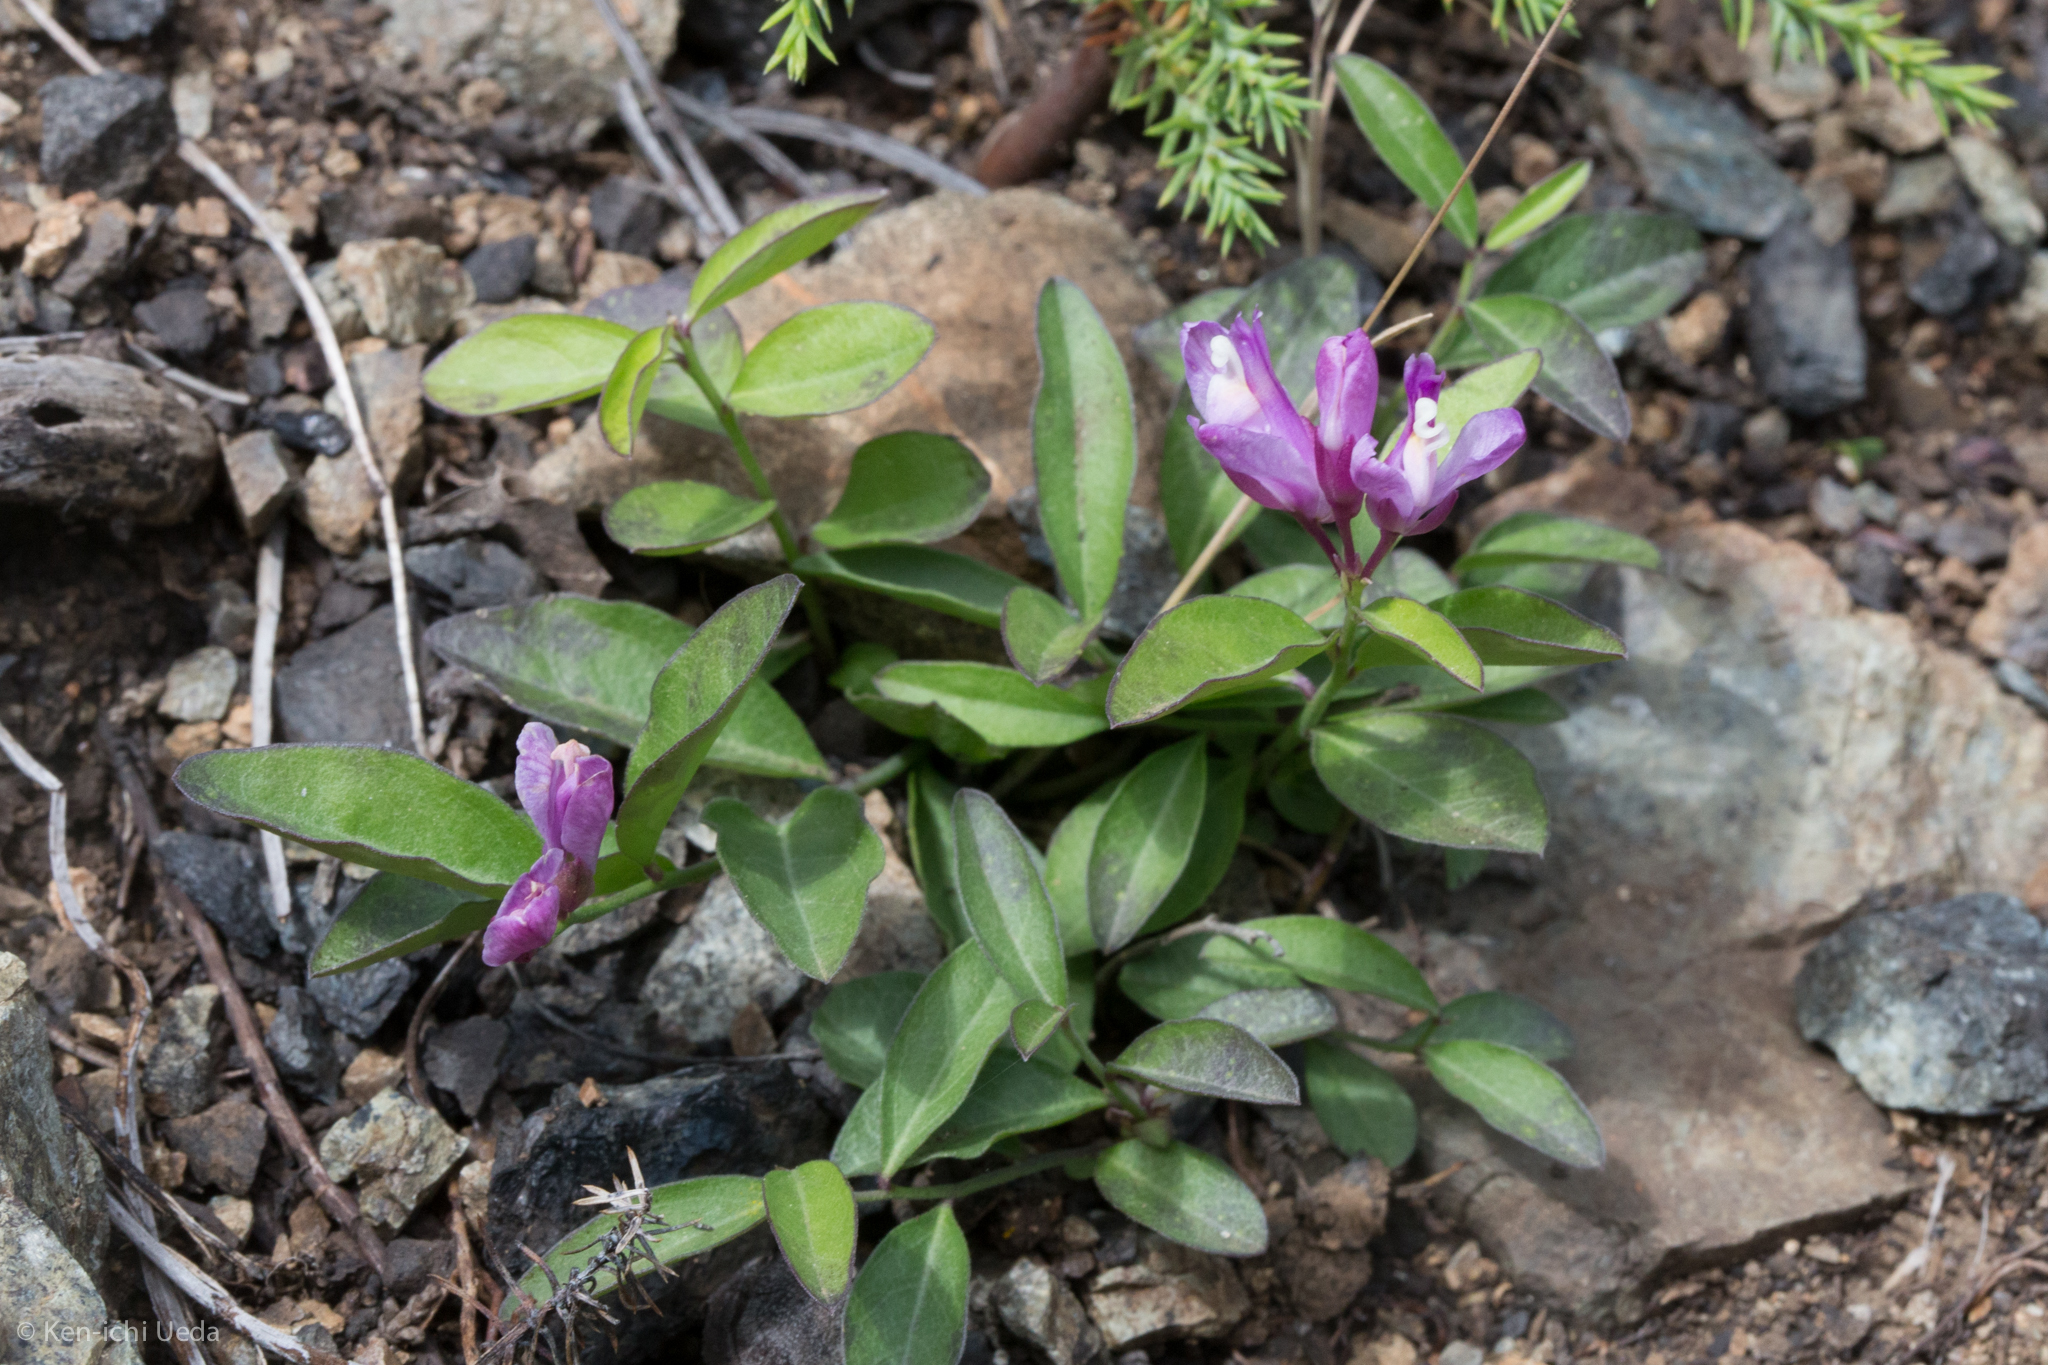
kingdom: Plantae
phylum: Tracheophyta
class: Magnoliopsida
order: Fabales
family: Polygalaceae
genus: Rhinotropis
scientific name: Rhinotropis californica
